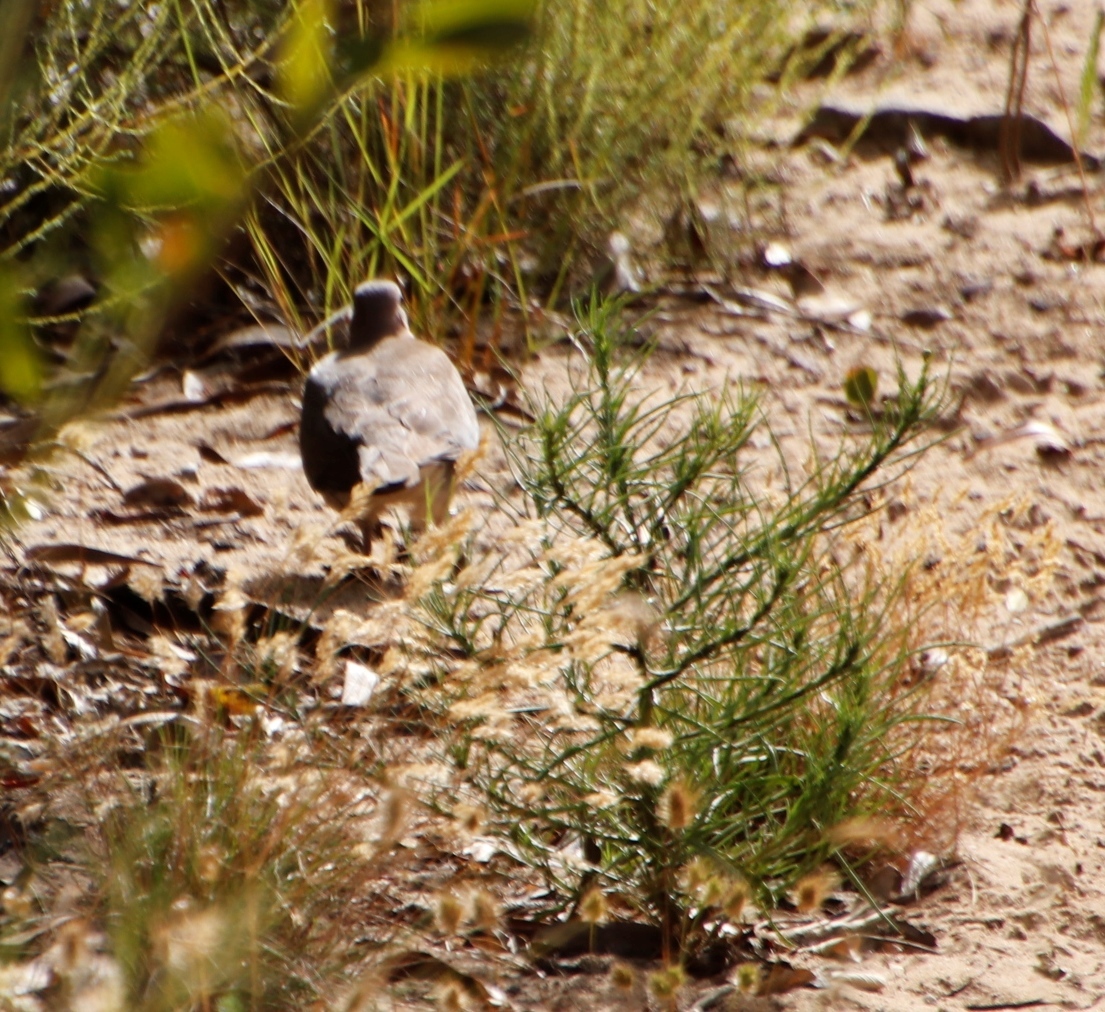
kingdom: Animalia
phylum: Chordata
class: Aves
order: Columbiformes
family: Columbidae
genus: Spilopelia
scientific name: Spilopelia senegalensis
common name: Laughing dove
